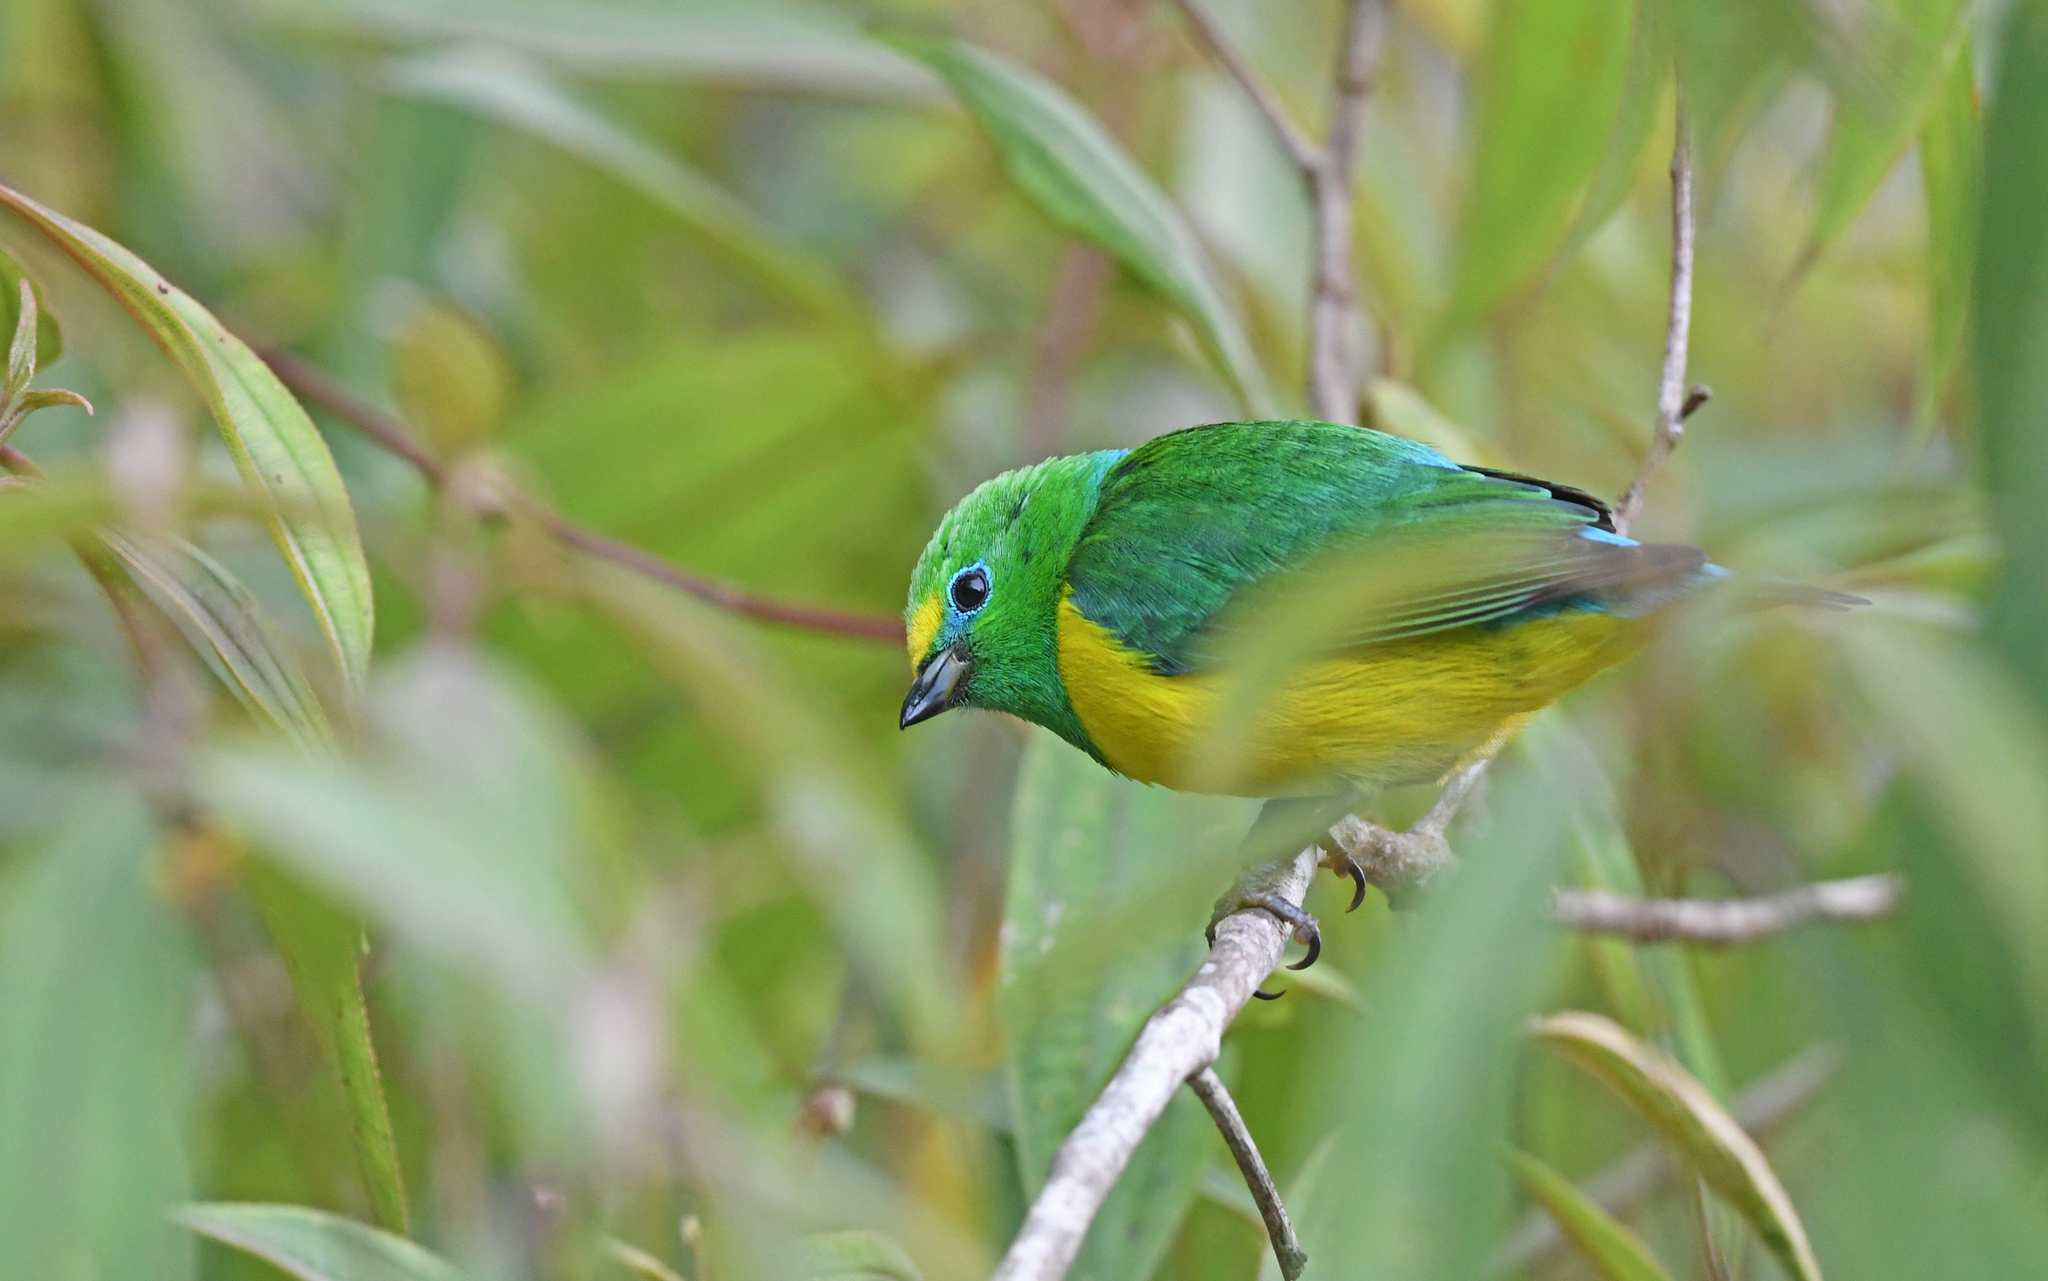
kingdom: Animalia
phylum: Chordata
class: Aves
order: Passeriformes
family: Fringillidae
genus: Chlorophonia
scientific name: Chlorophonia cyanea
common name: Blue-naped chlorophonia
